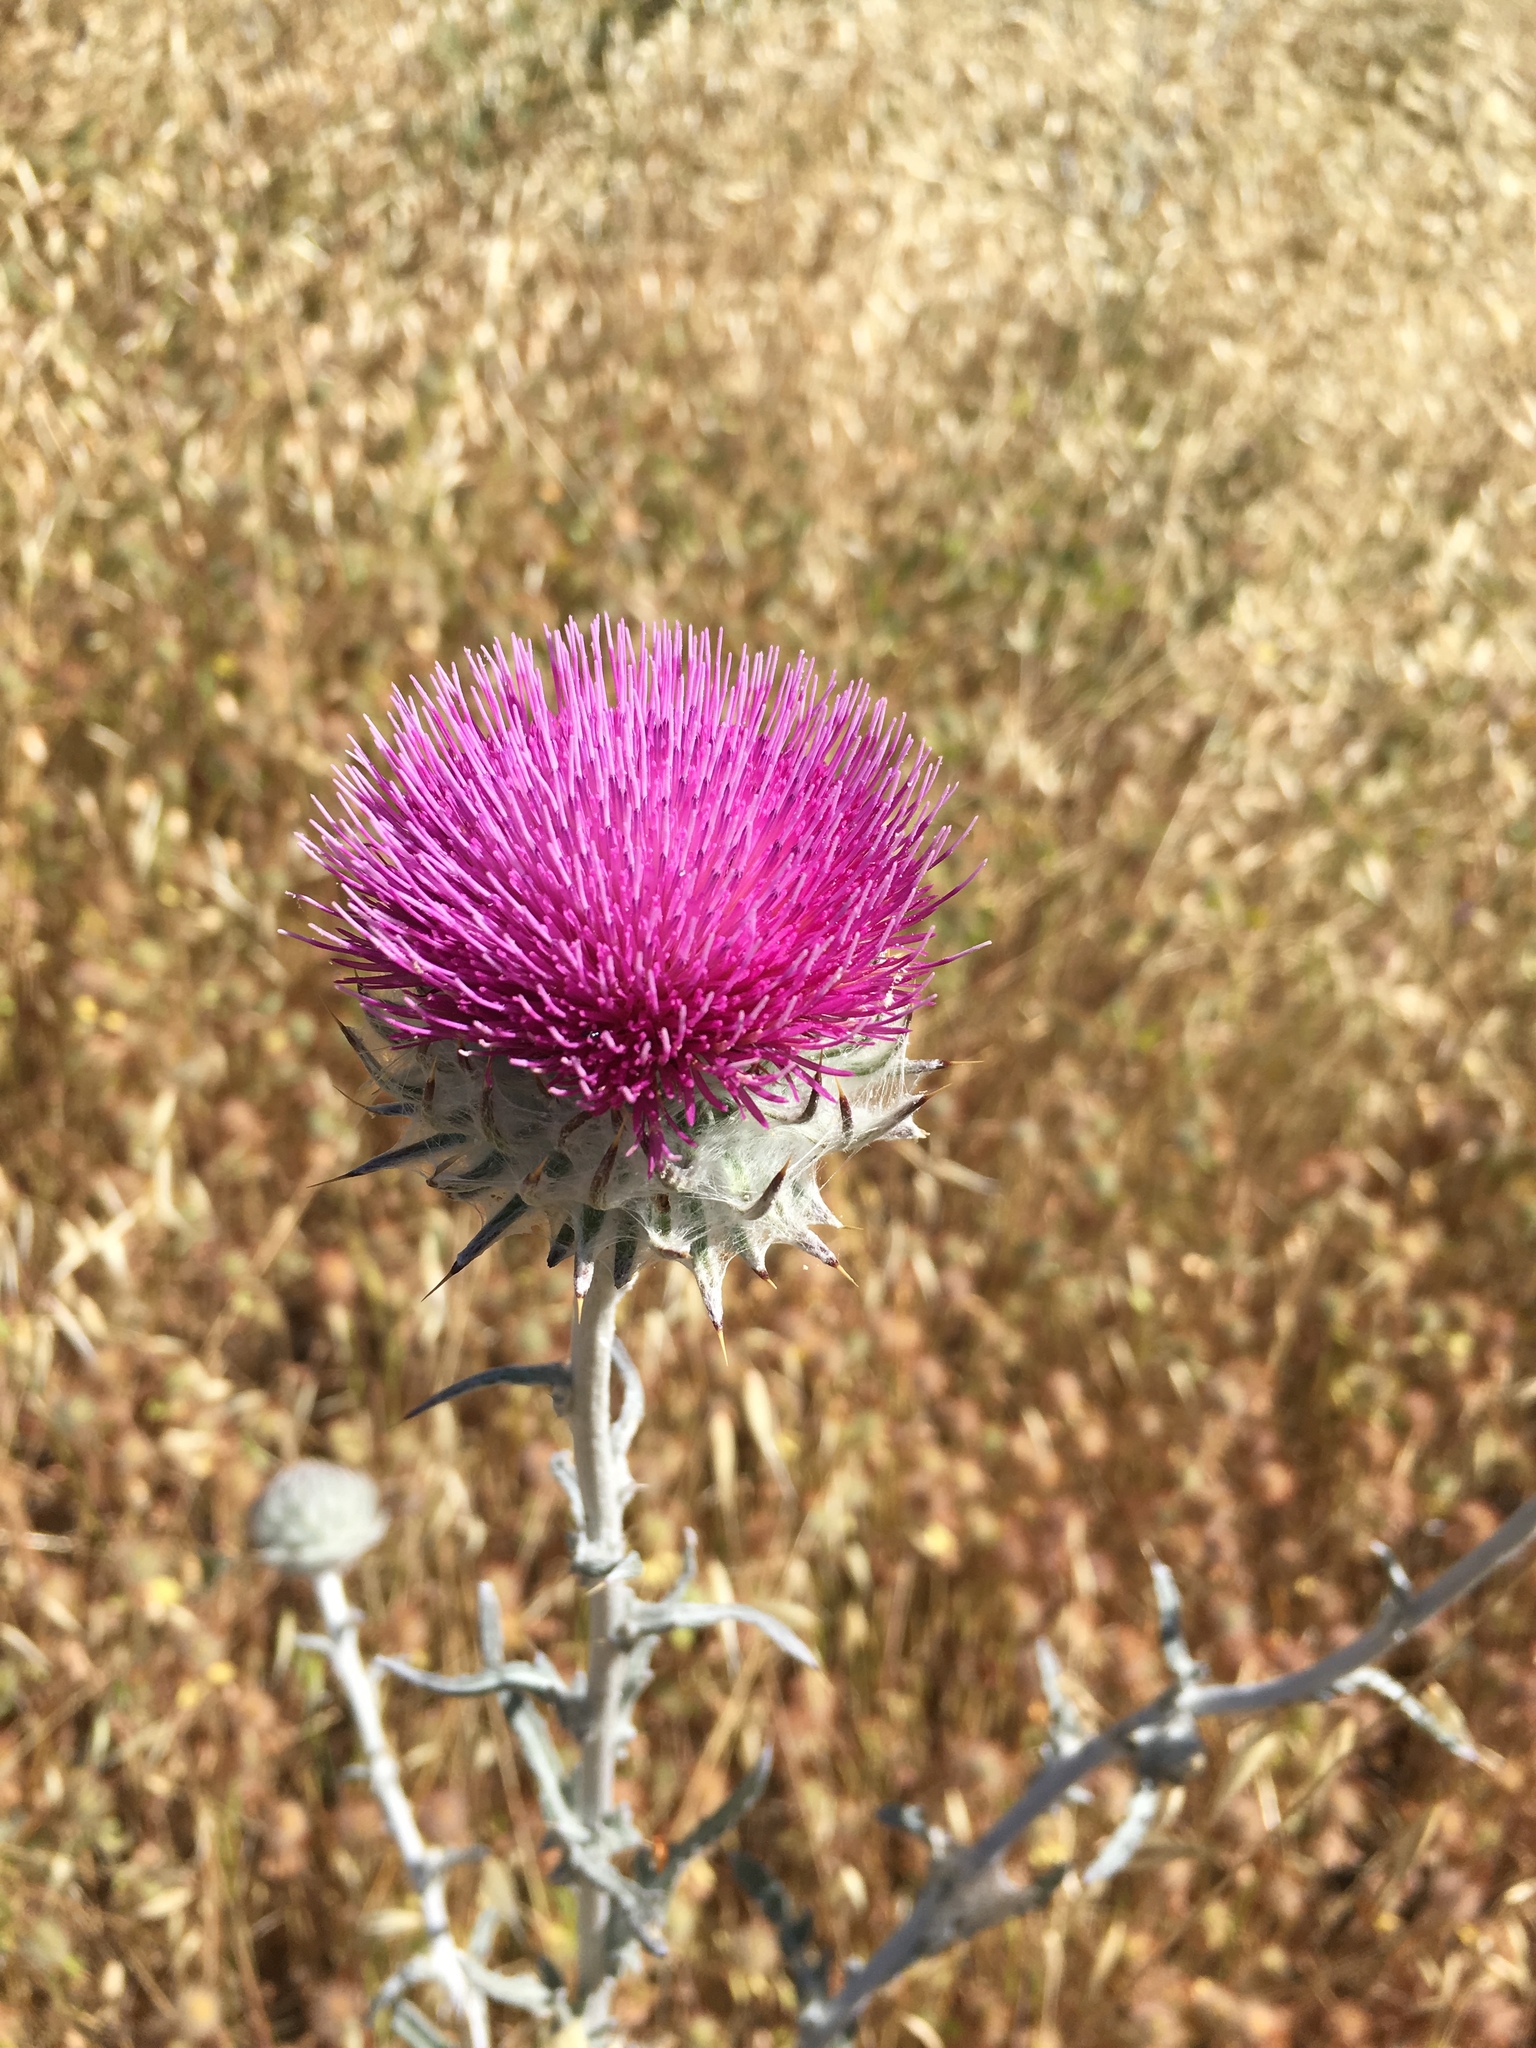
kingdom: Plantae
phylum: Tracheophyta
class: Magnoliopsida
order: Asterales
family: Asteraceae
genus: Cirsium
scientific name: Cirsium occidentale
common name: Western thistle
